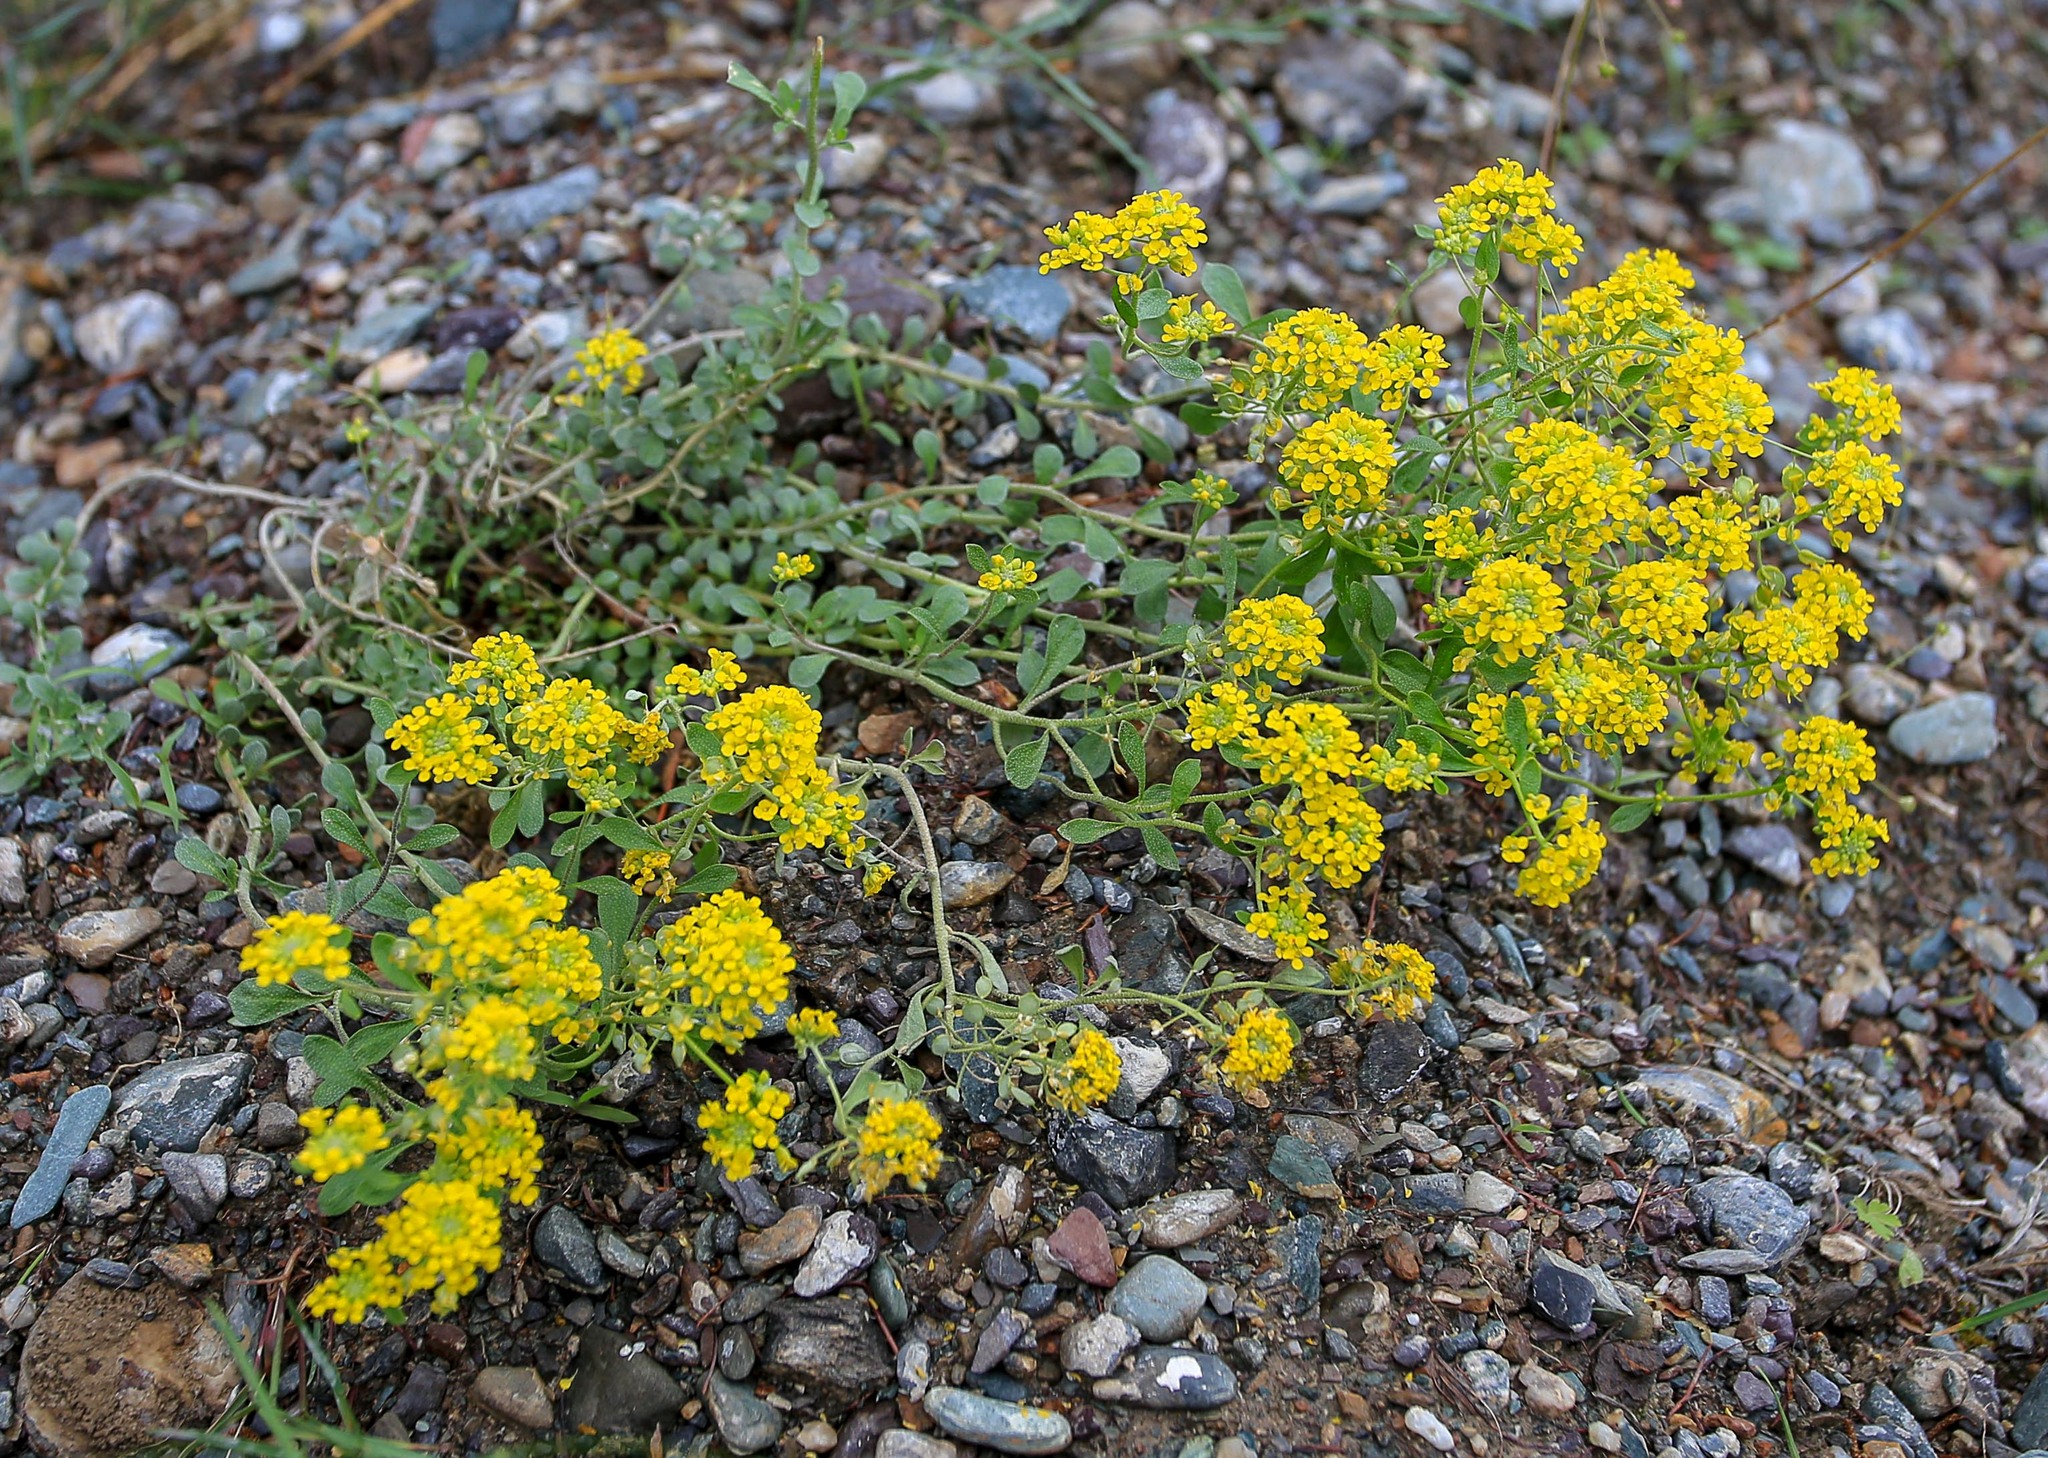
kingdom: Plantae
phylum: Tracheophyta
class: Magnoliopsida
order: Brassicales
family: Brassicaceae
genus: Odontarrhena
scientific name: Odontarrhena obovata
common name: American alyssum
